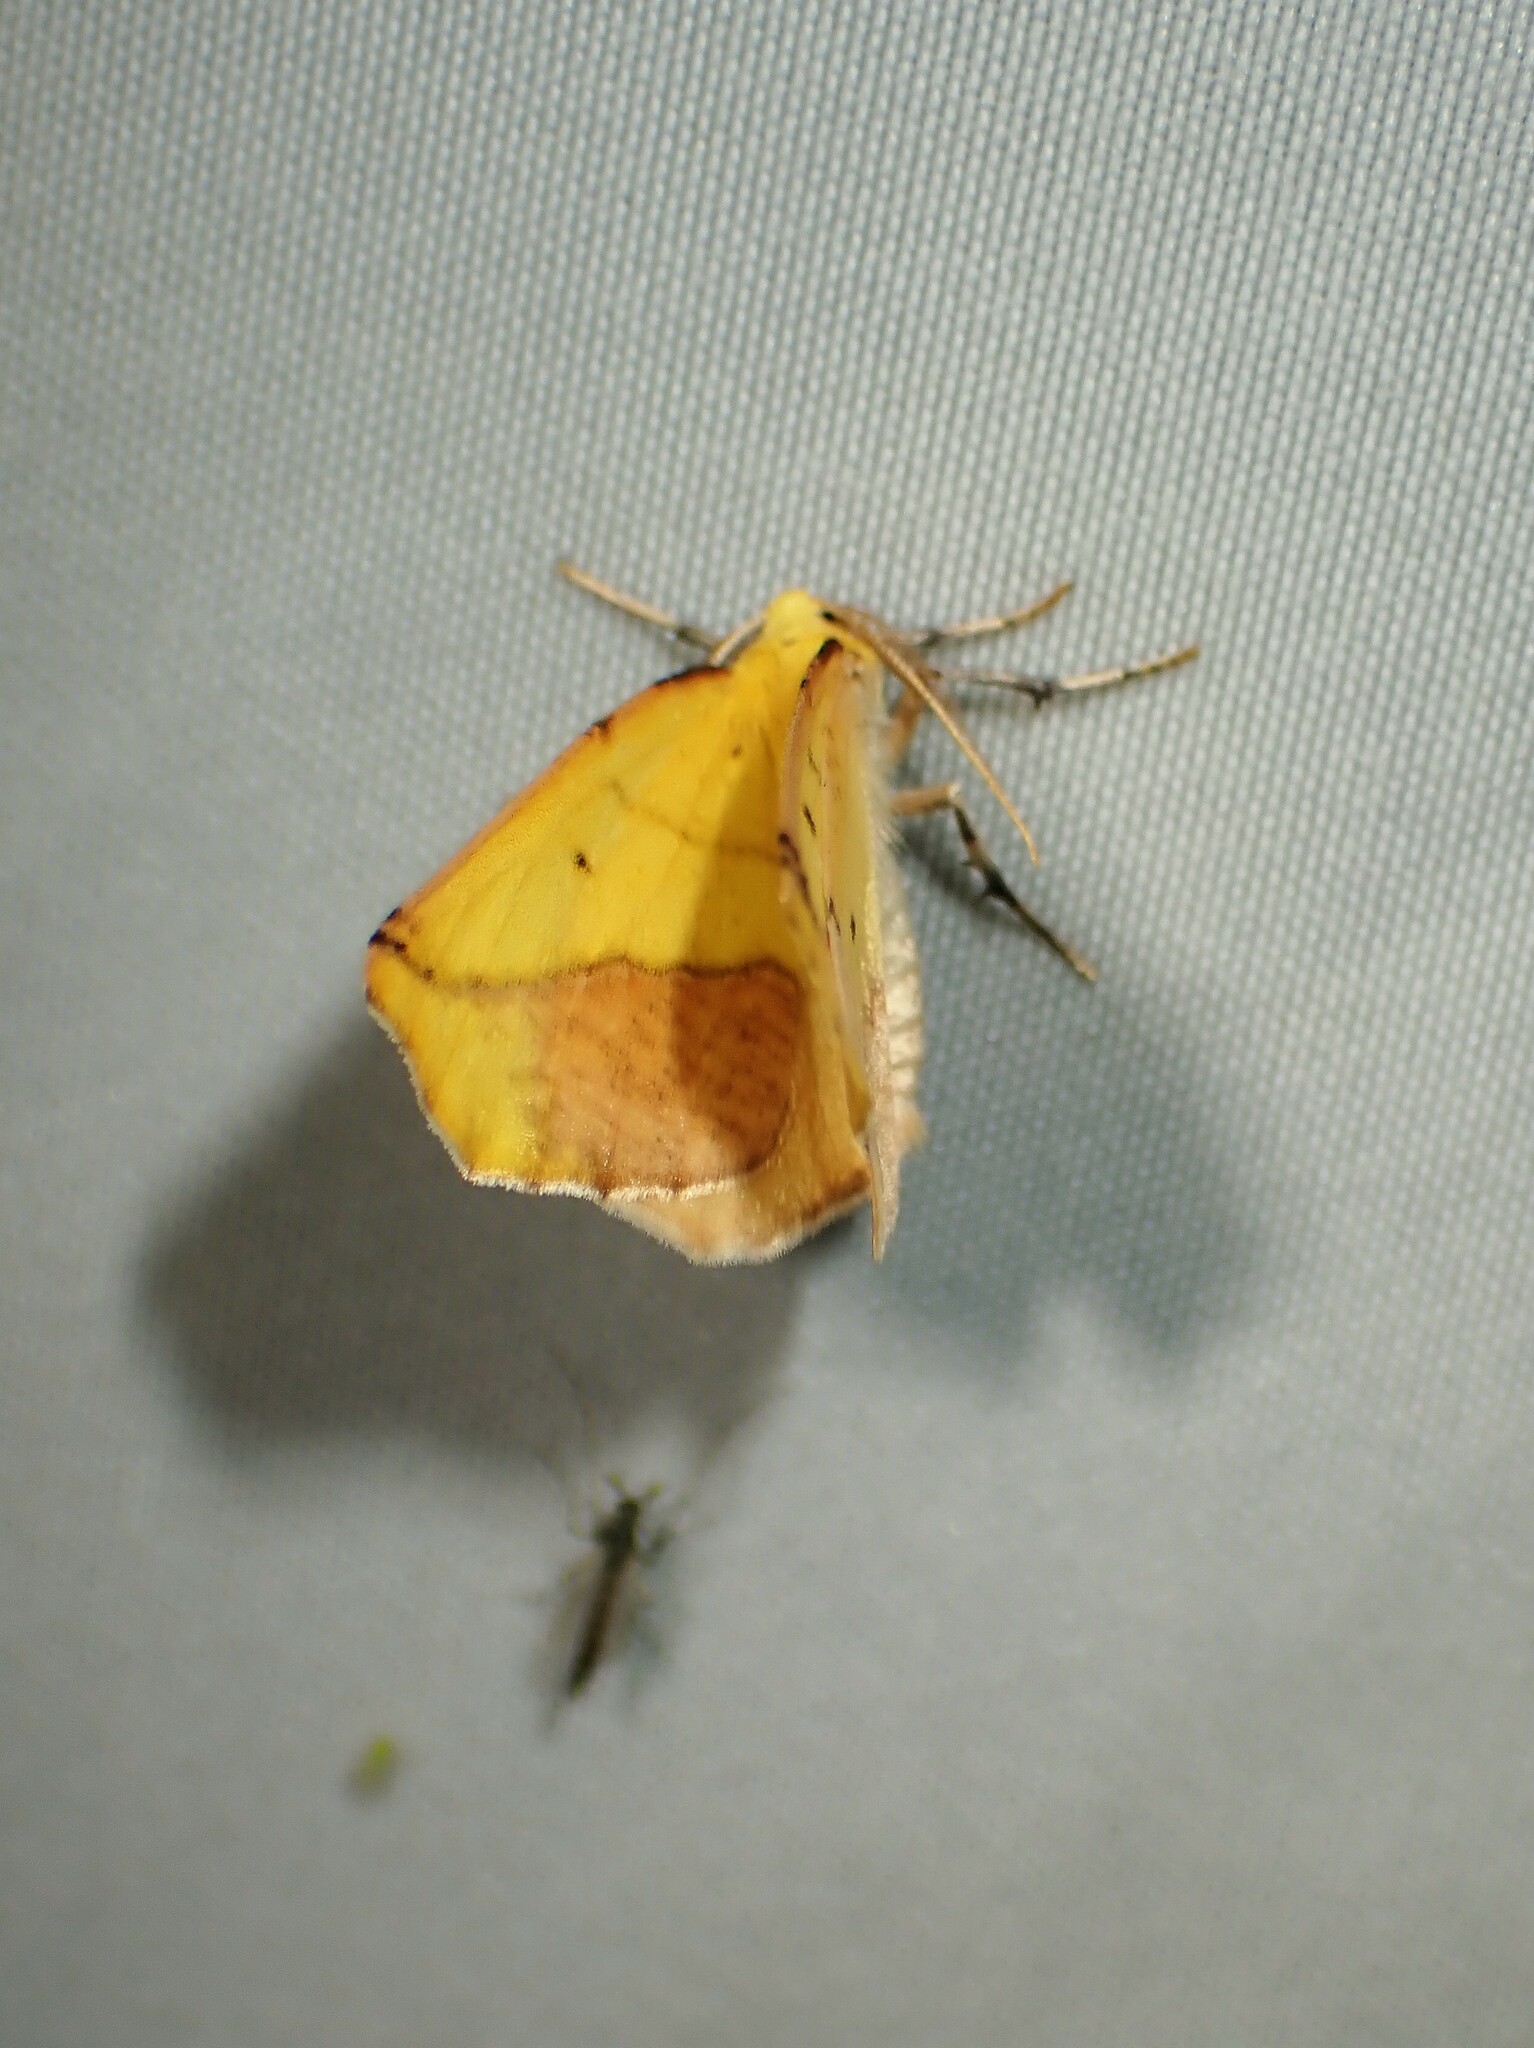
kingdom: Animalia
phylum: Arthropoda
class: Insecta
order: Lepidoptera
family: Geometridae
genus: Sicya
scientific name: Sicya macularia
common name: Sharp-lined yellow
